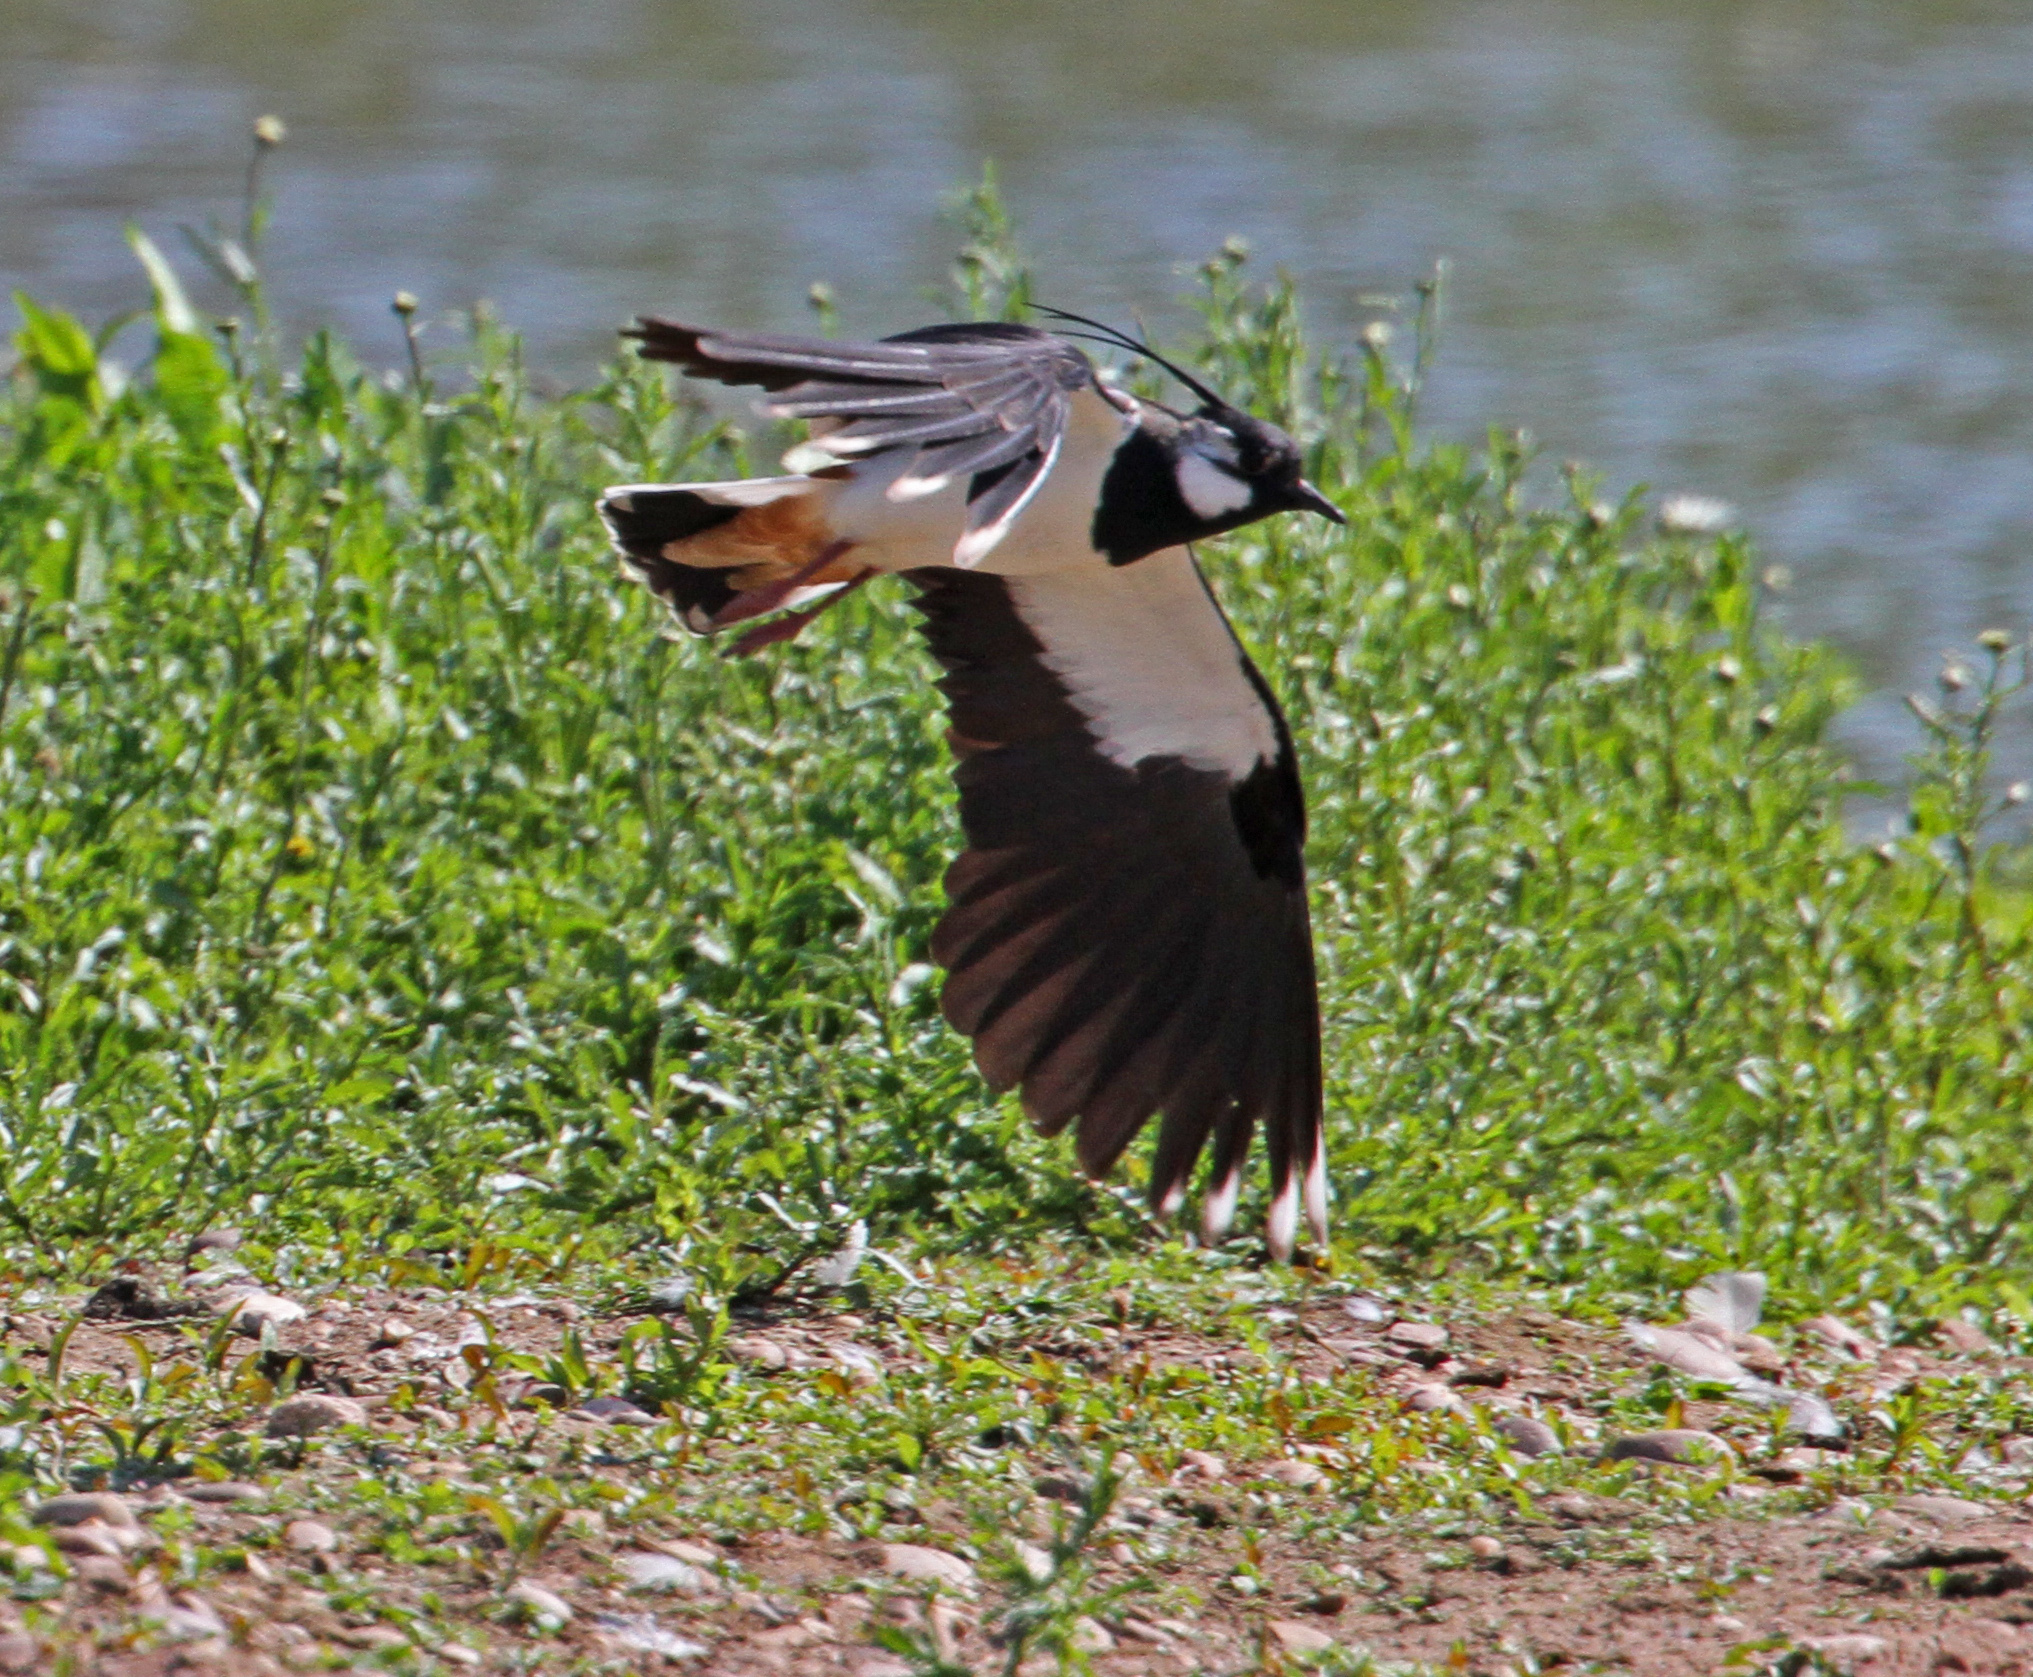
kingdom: Animalia
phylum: Chordata
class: Aves
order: Charadriiformes
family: Charadriidae
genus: Vanellus
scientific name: Vanellus vanellus
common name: Northern lapwing
